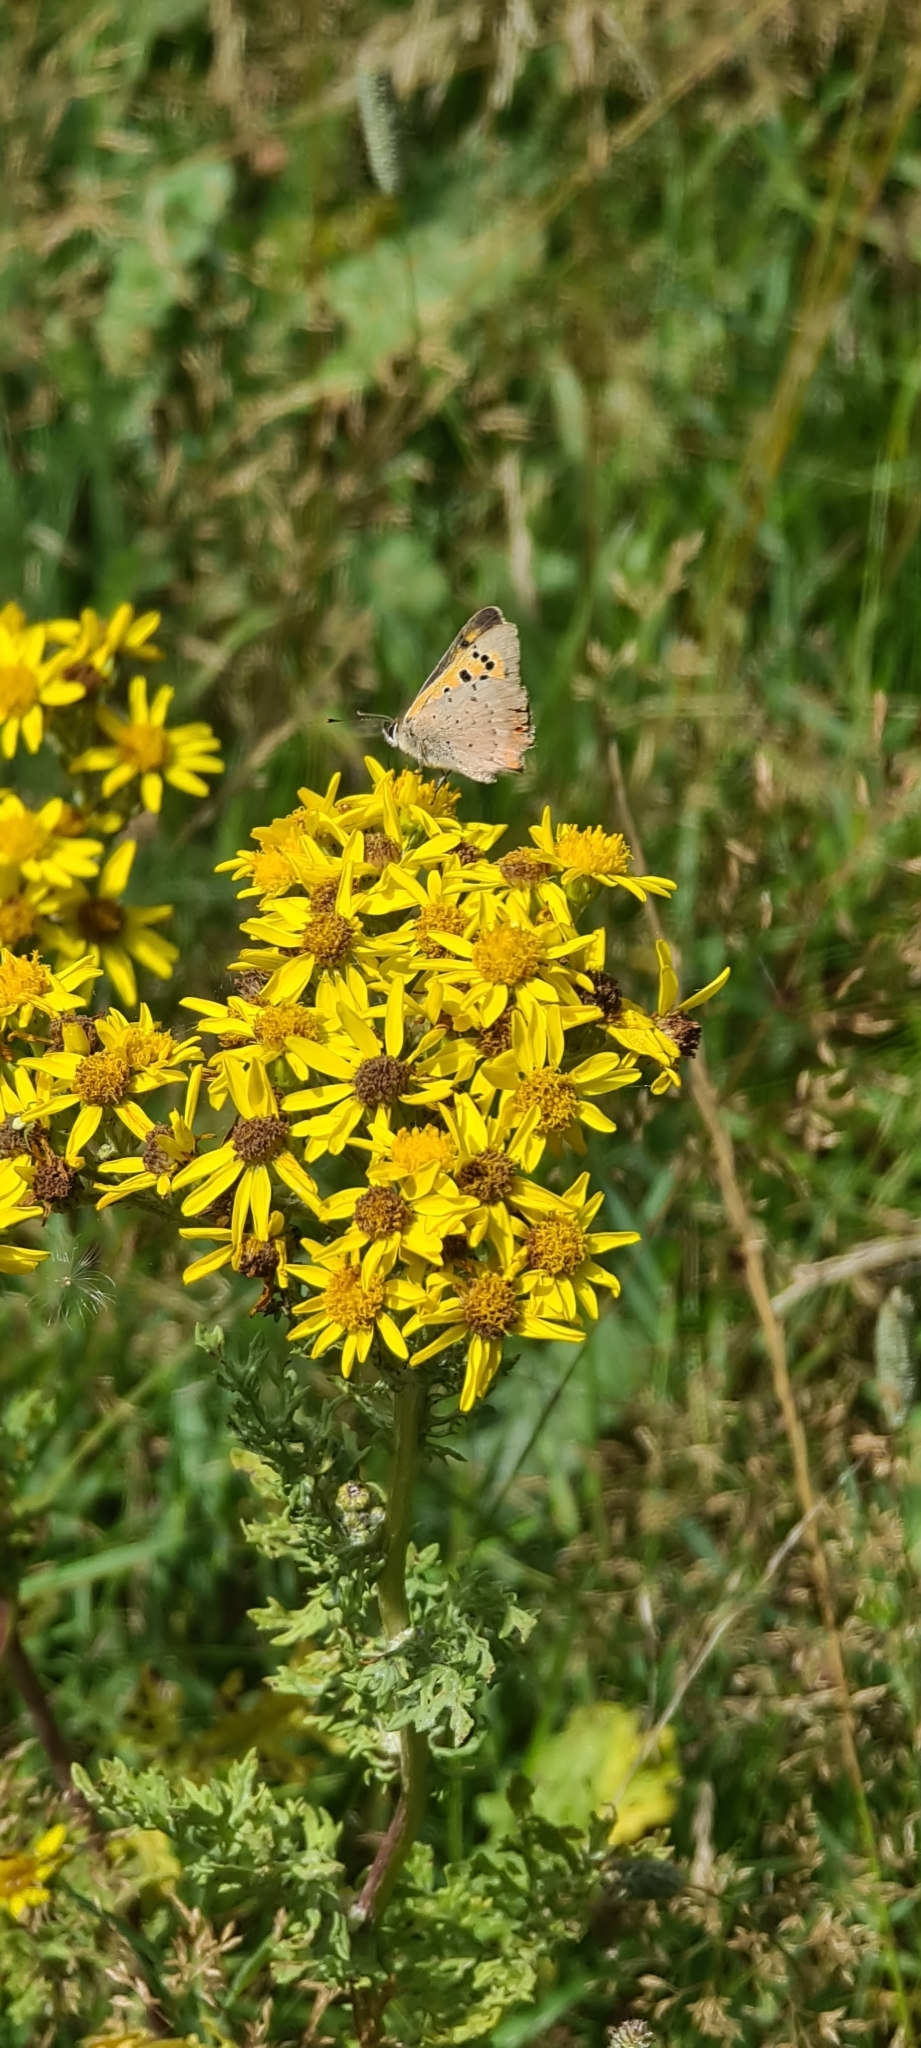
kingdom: Animalia
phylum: Arthropoda
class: Insecta
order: Lepidoptera
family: Lycaenidae
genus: Lycaena
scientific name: Lycaena phlaeas
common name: Small copper
